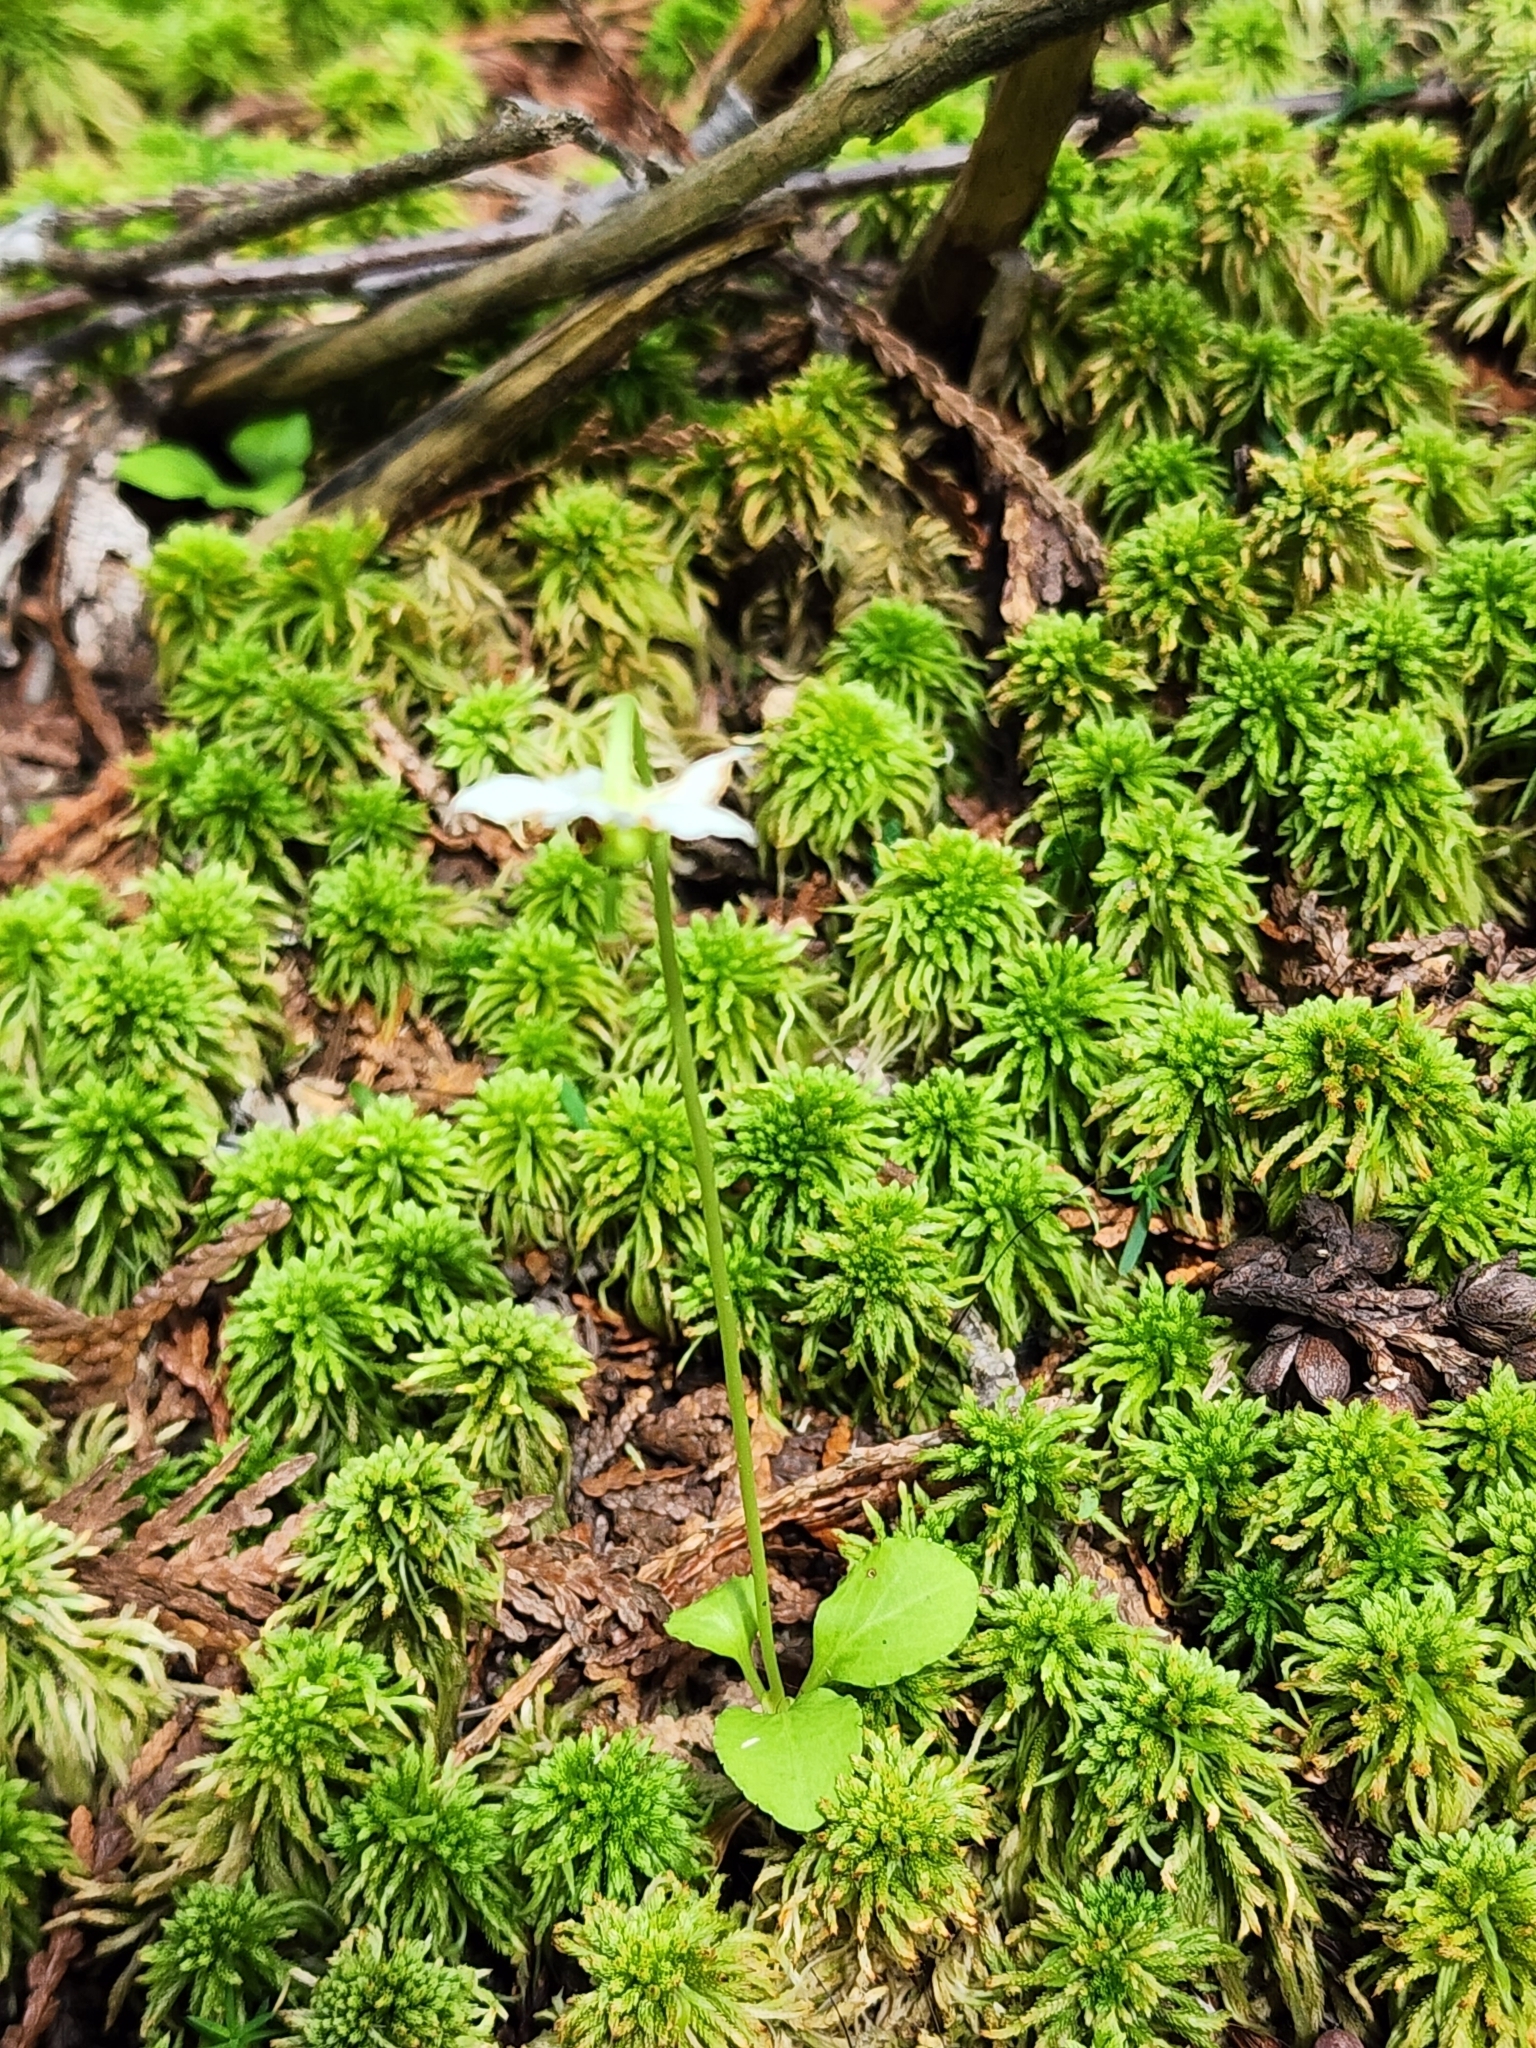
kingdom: Plantae
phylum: Tracheophyta
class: Magnoliopsida
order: Ericales
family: Ericaceae
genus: Moneses
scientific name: Moneses uniflora
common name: One-flowered wintergreen
